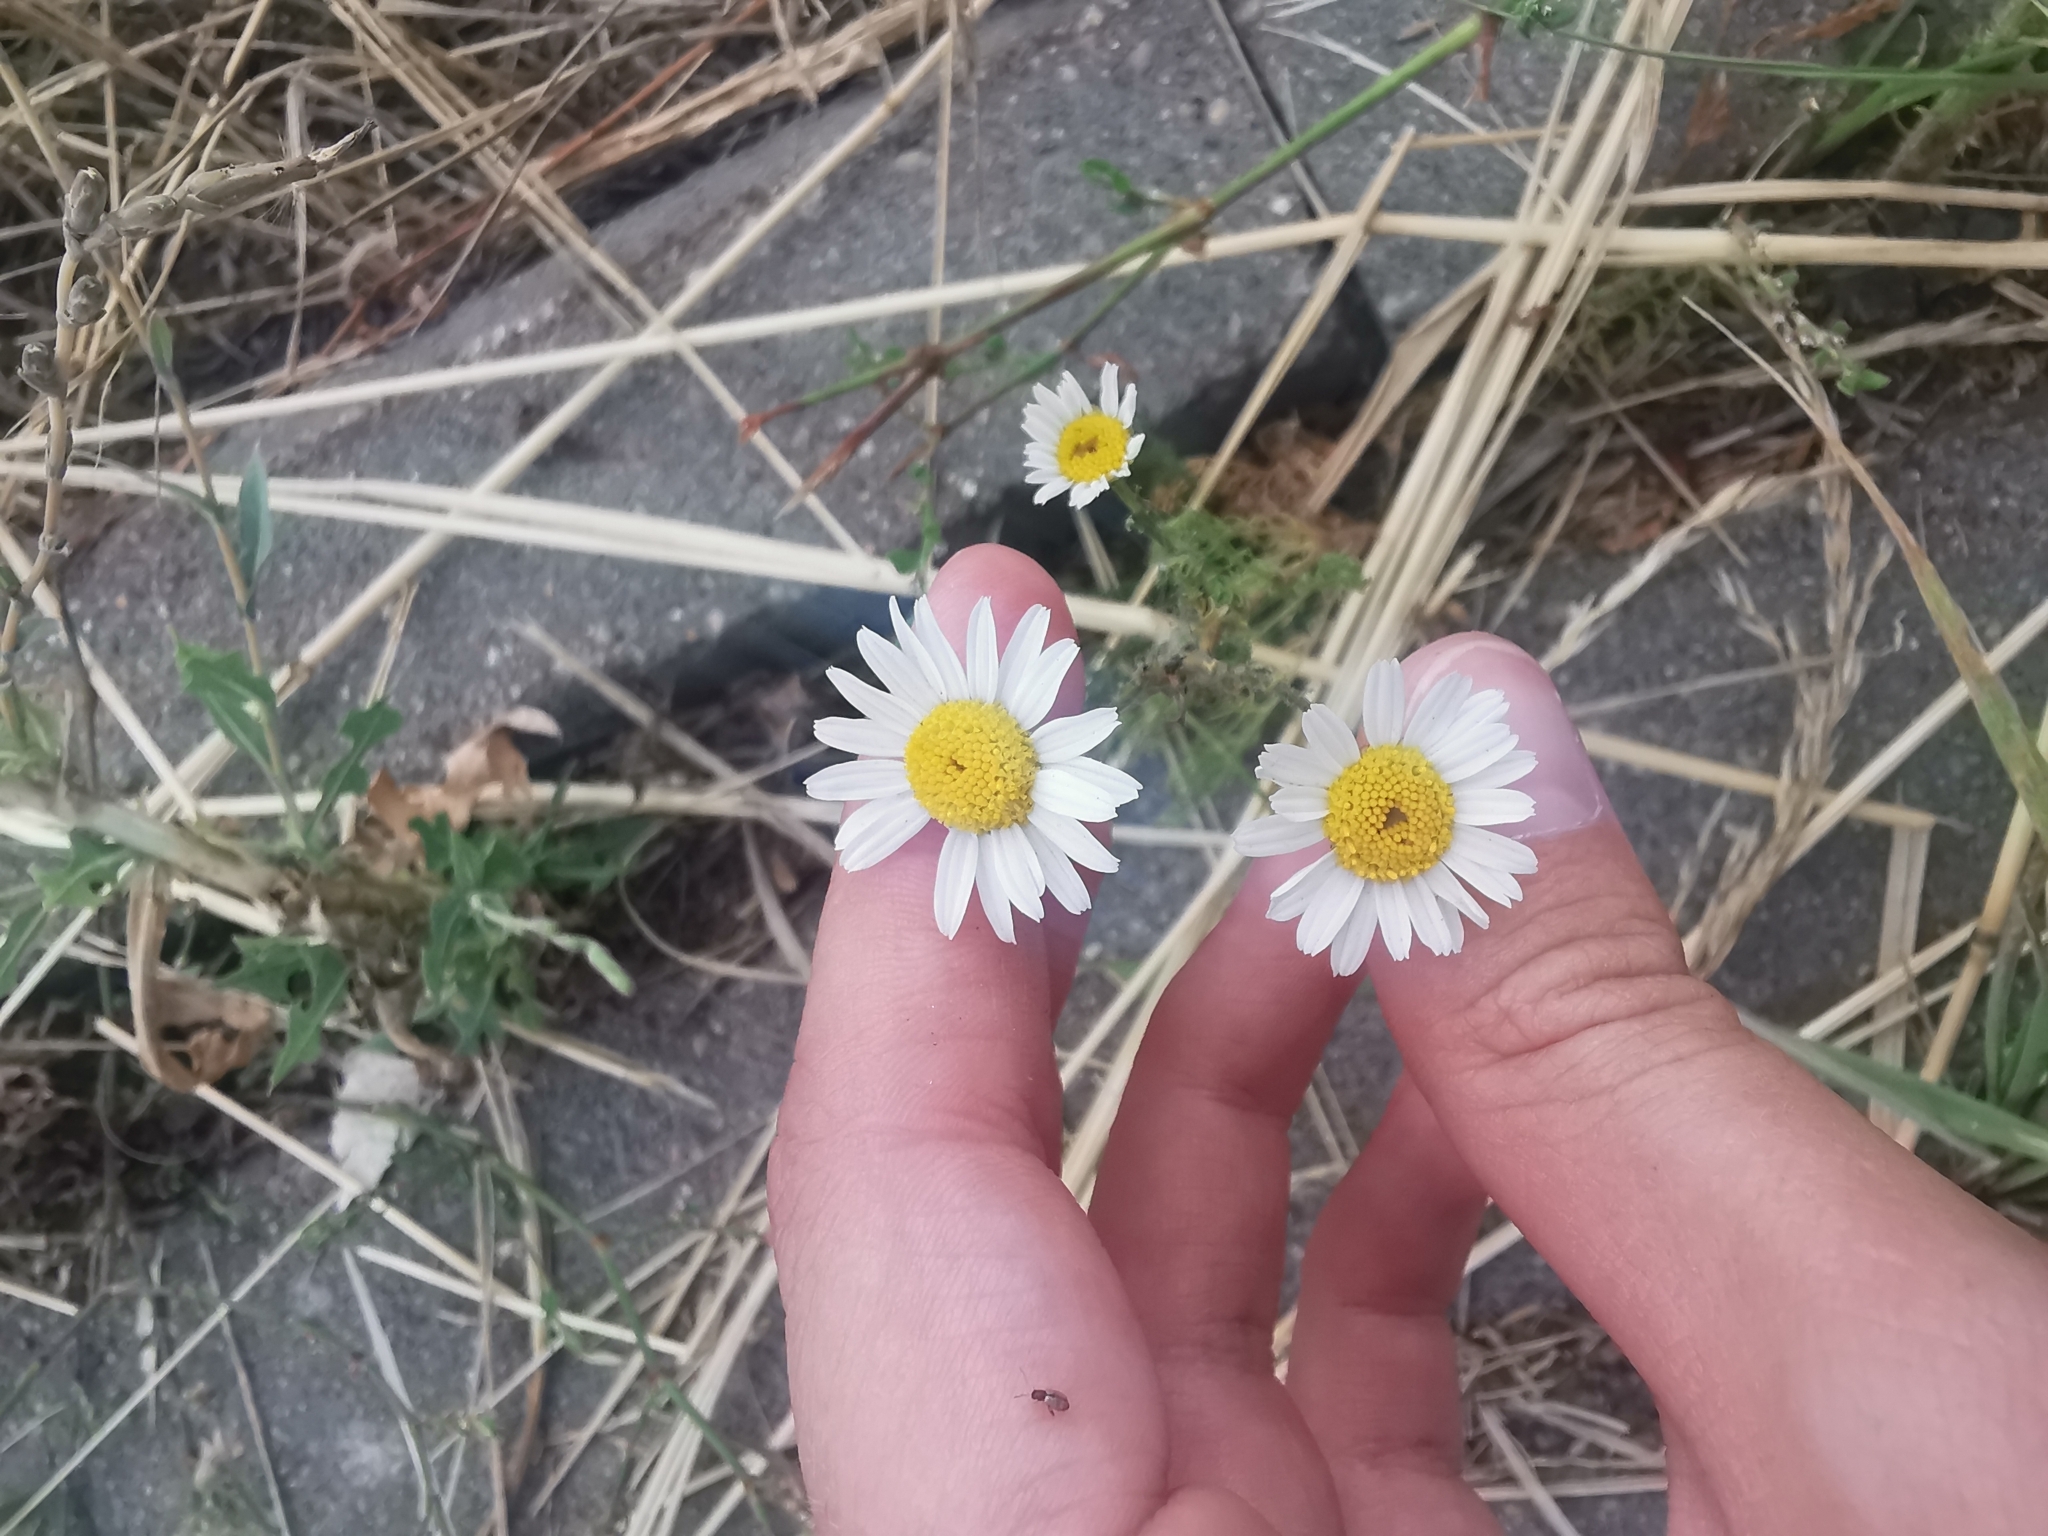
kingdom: Plantae
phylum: Tracheophyta
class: Magnoliopsida
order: Asterales
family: Asteraceae
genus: Tripleurospermum
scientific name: Tripleurospermum inodorum
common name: Scentless mayweed
